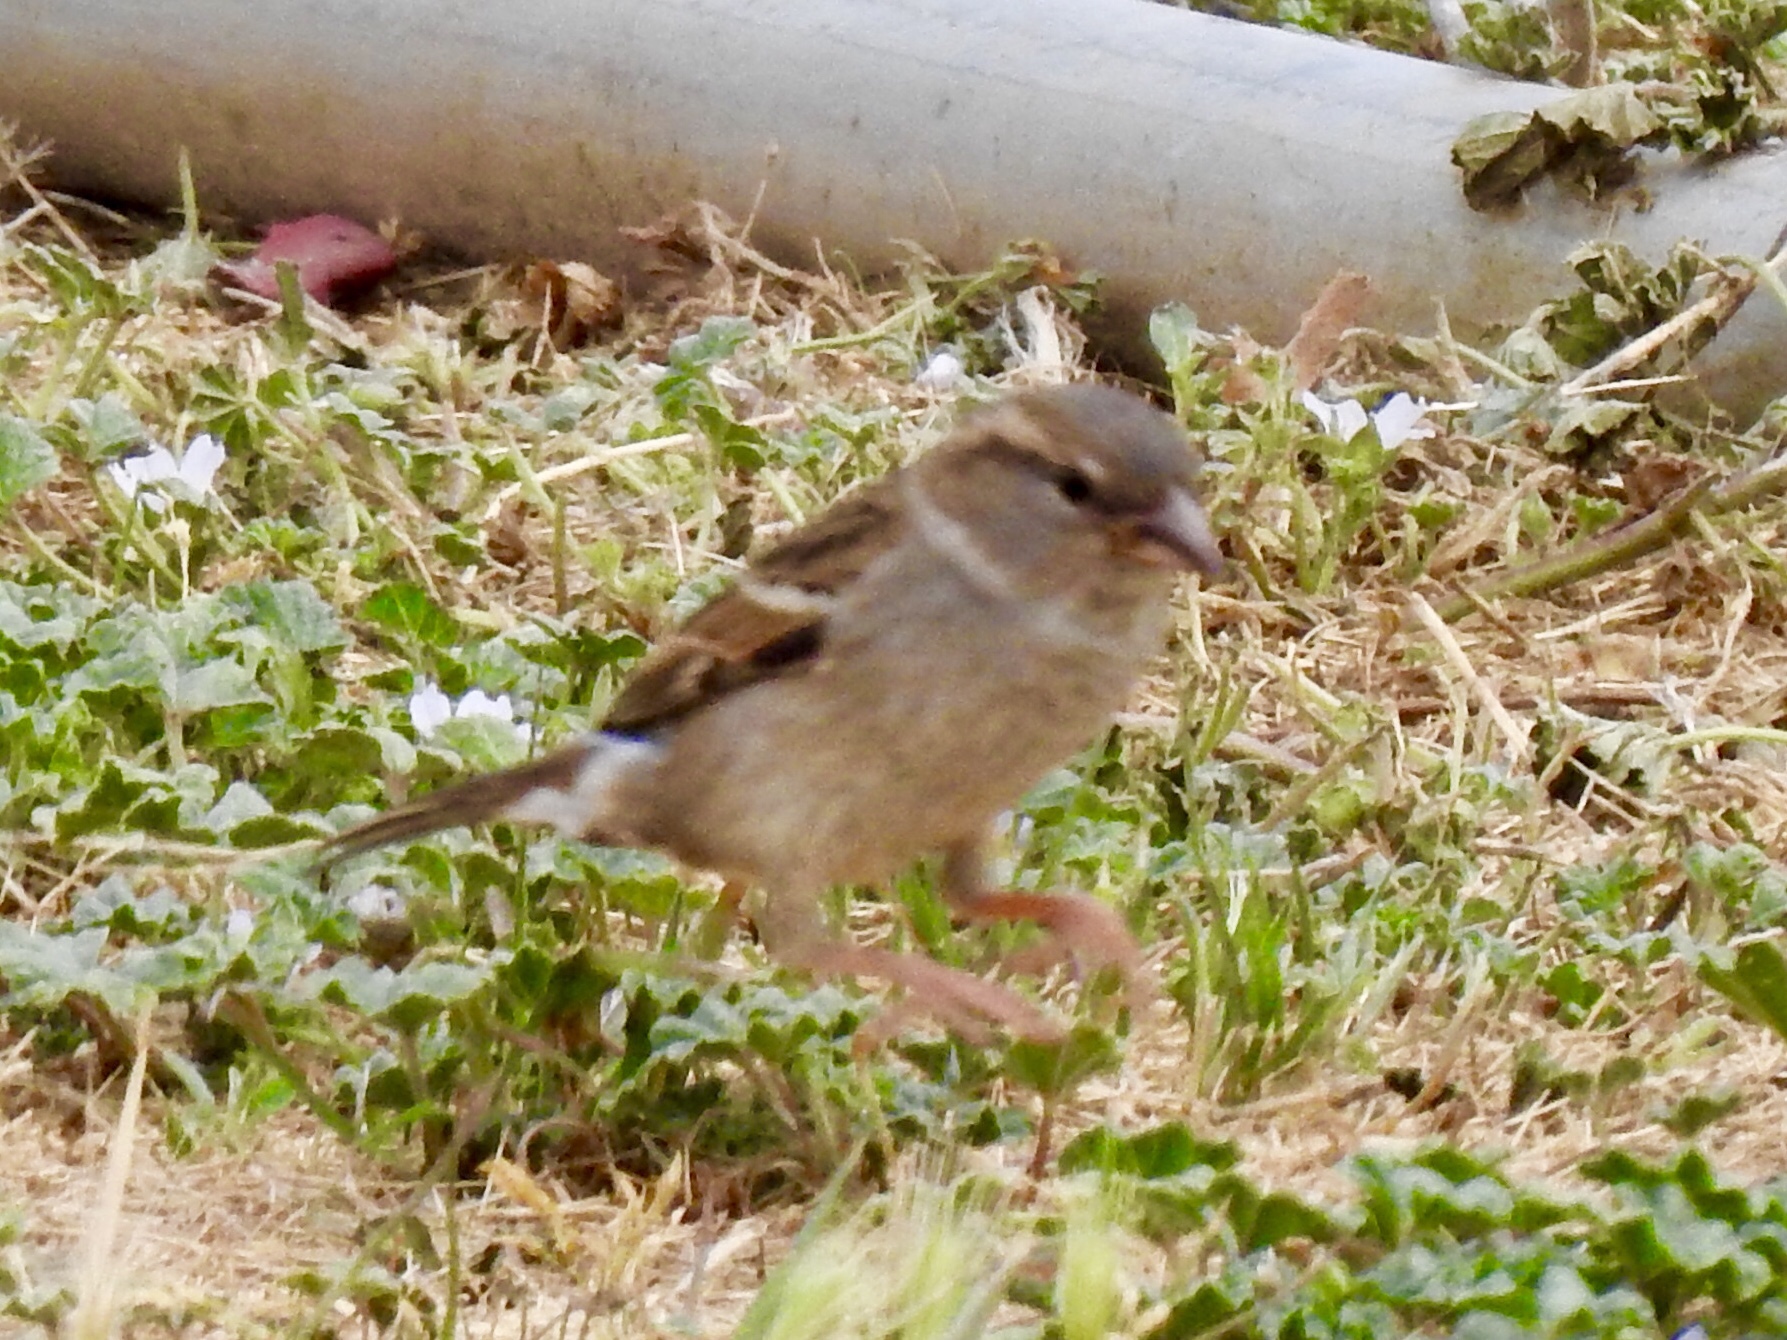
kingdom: Animalia
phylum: Chordata
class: Aves
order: Passeriformes
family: Passeridae
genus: Passer
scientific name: Passer domesticus
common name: House sparrow
